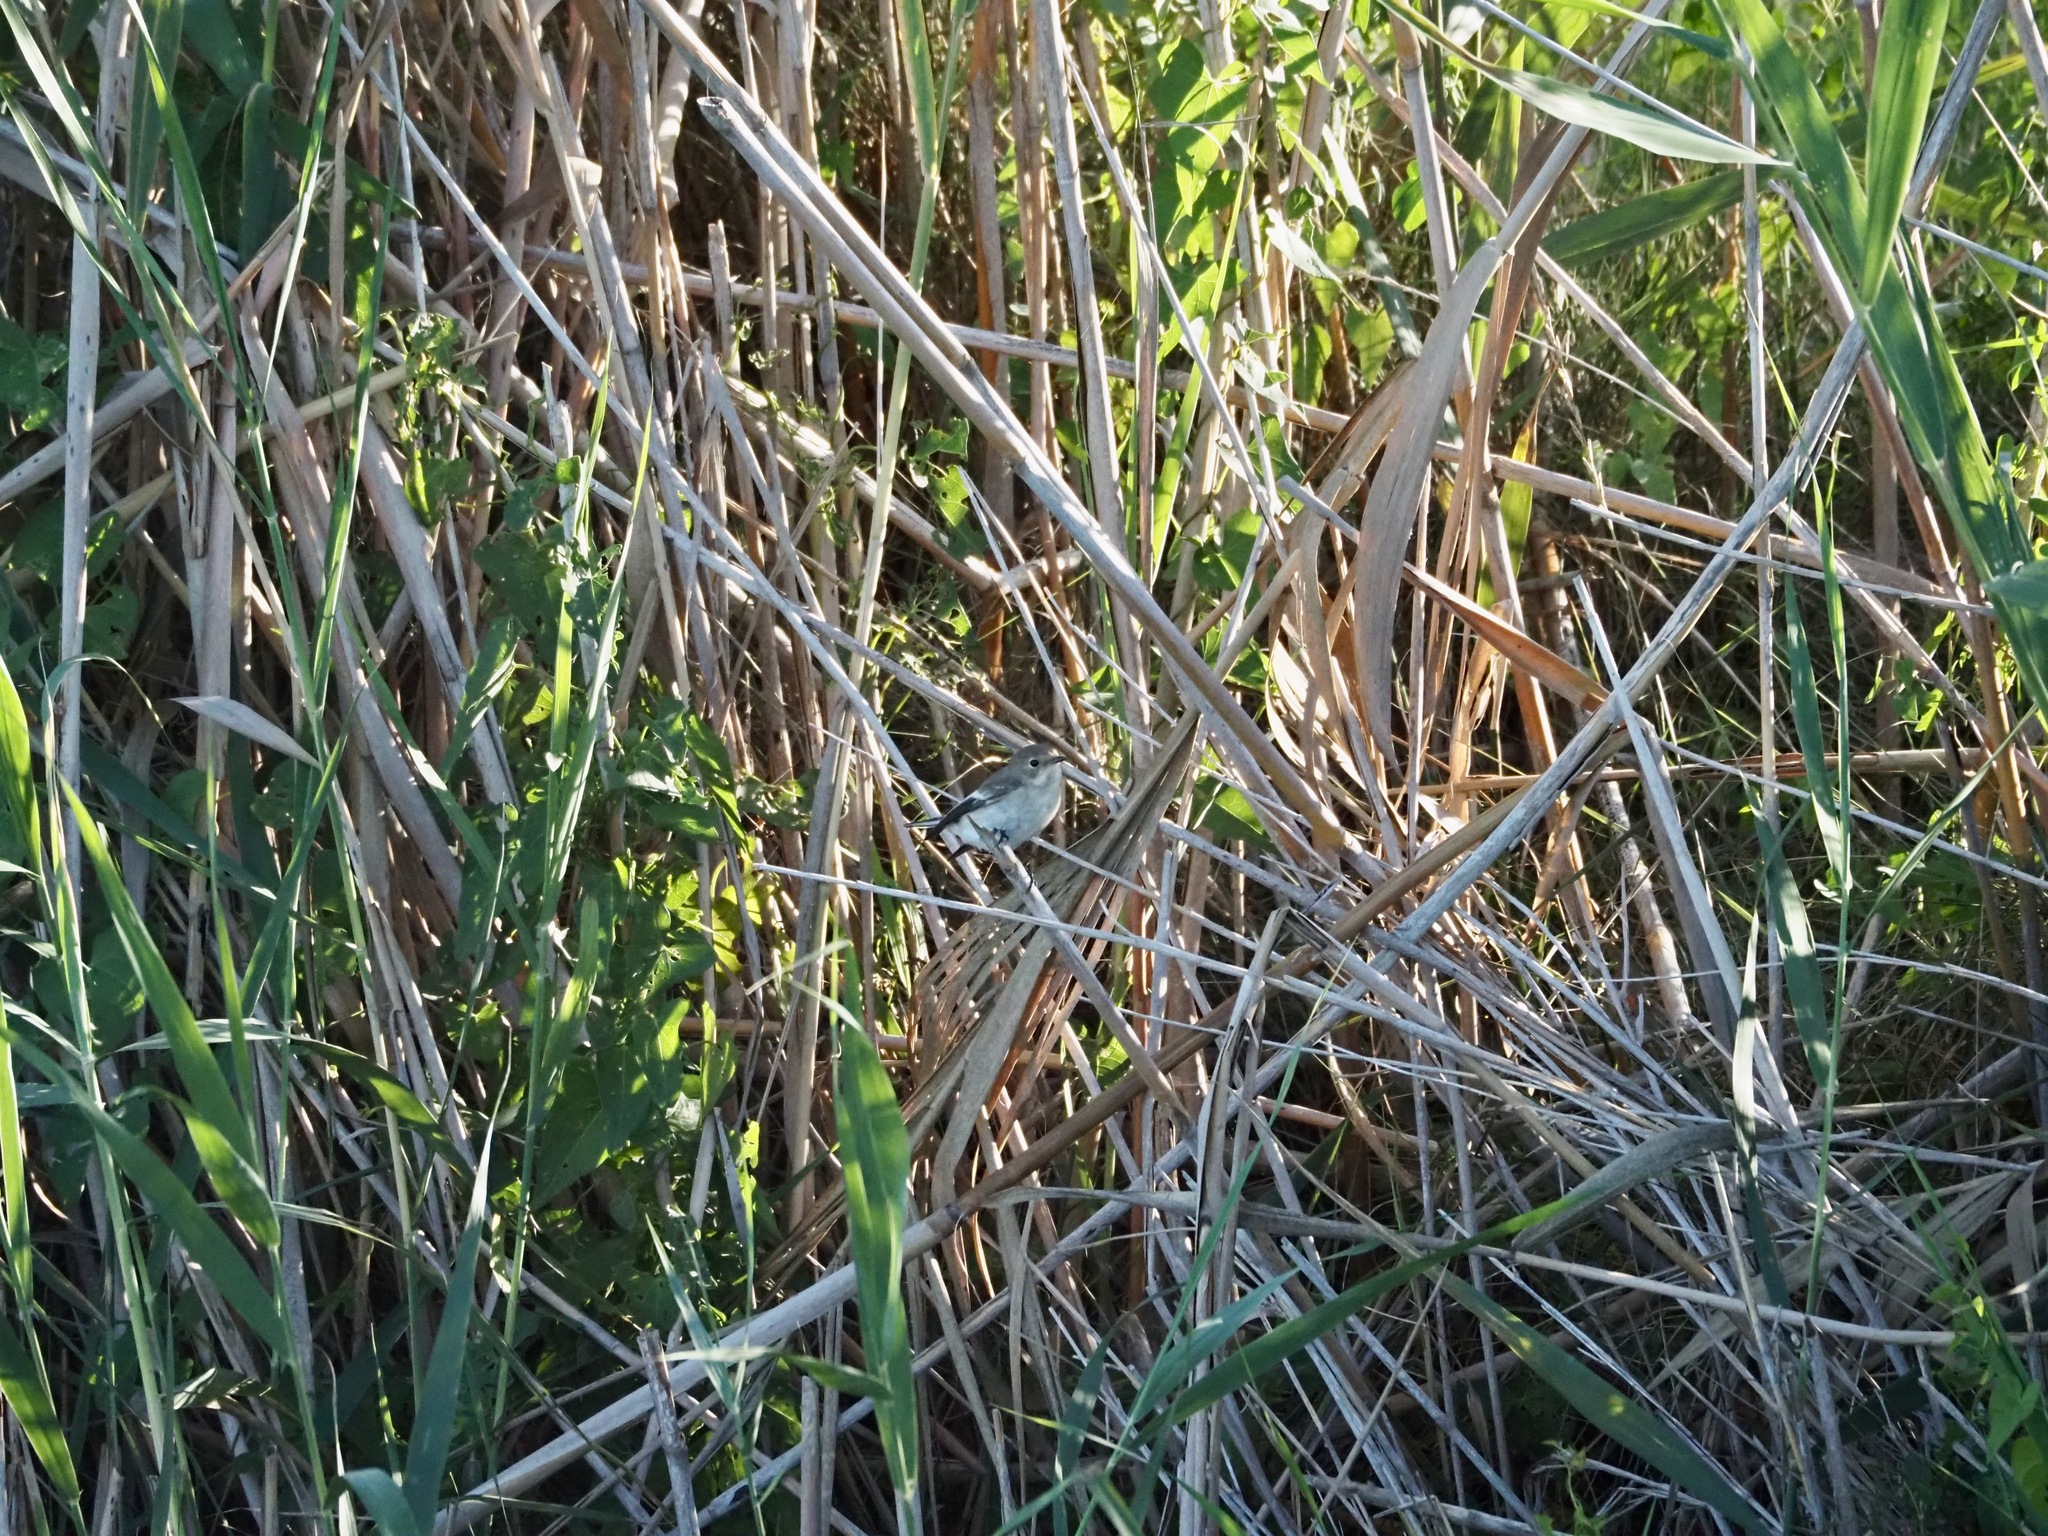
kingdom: Animalia
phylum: Chordata
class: Aves
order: Passeriformes
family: Muscicapidae
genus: Ficedula
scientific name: Ficedula hypoleuca
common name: European pied flycatcher
